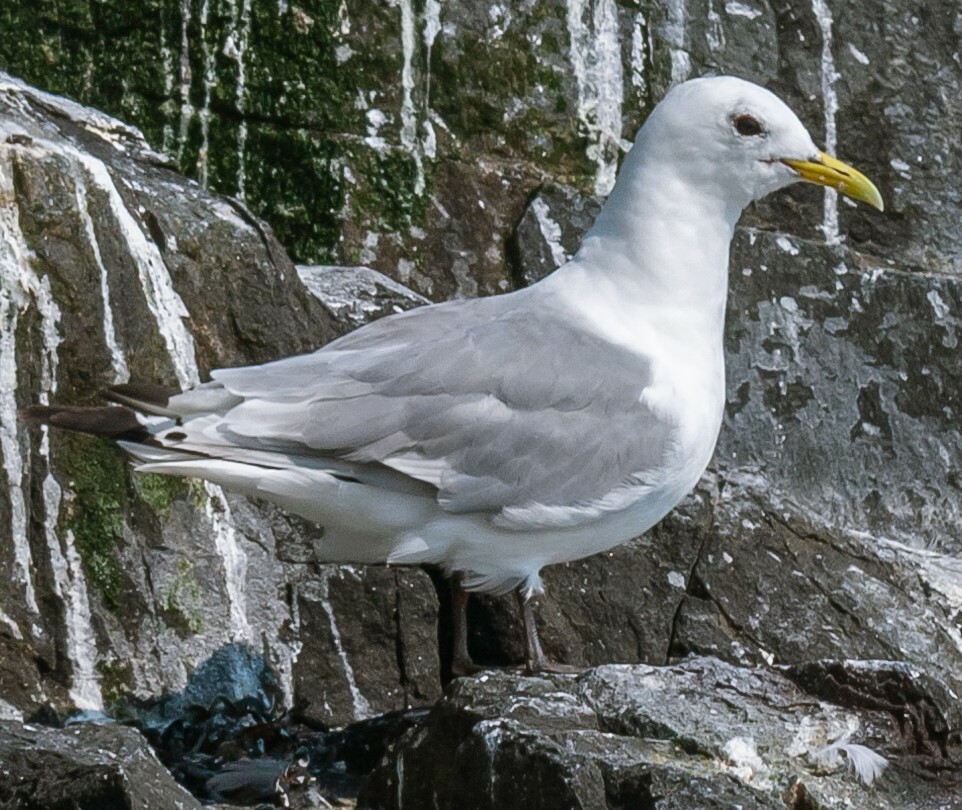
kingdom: Animalia
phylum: Chordata
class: Aves
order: Charadriiformes
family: Laridae
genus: Rissa
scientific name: Rissa tridactyla
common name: Black-legged kittiwake
